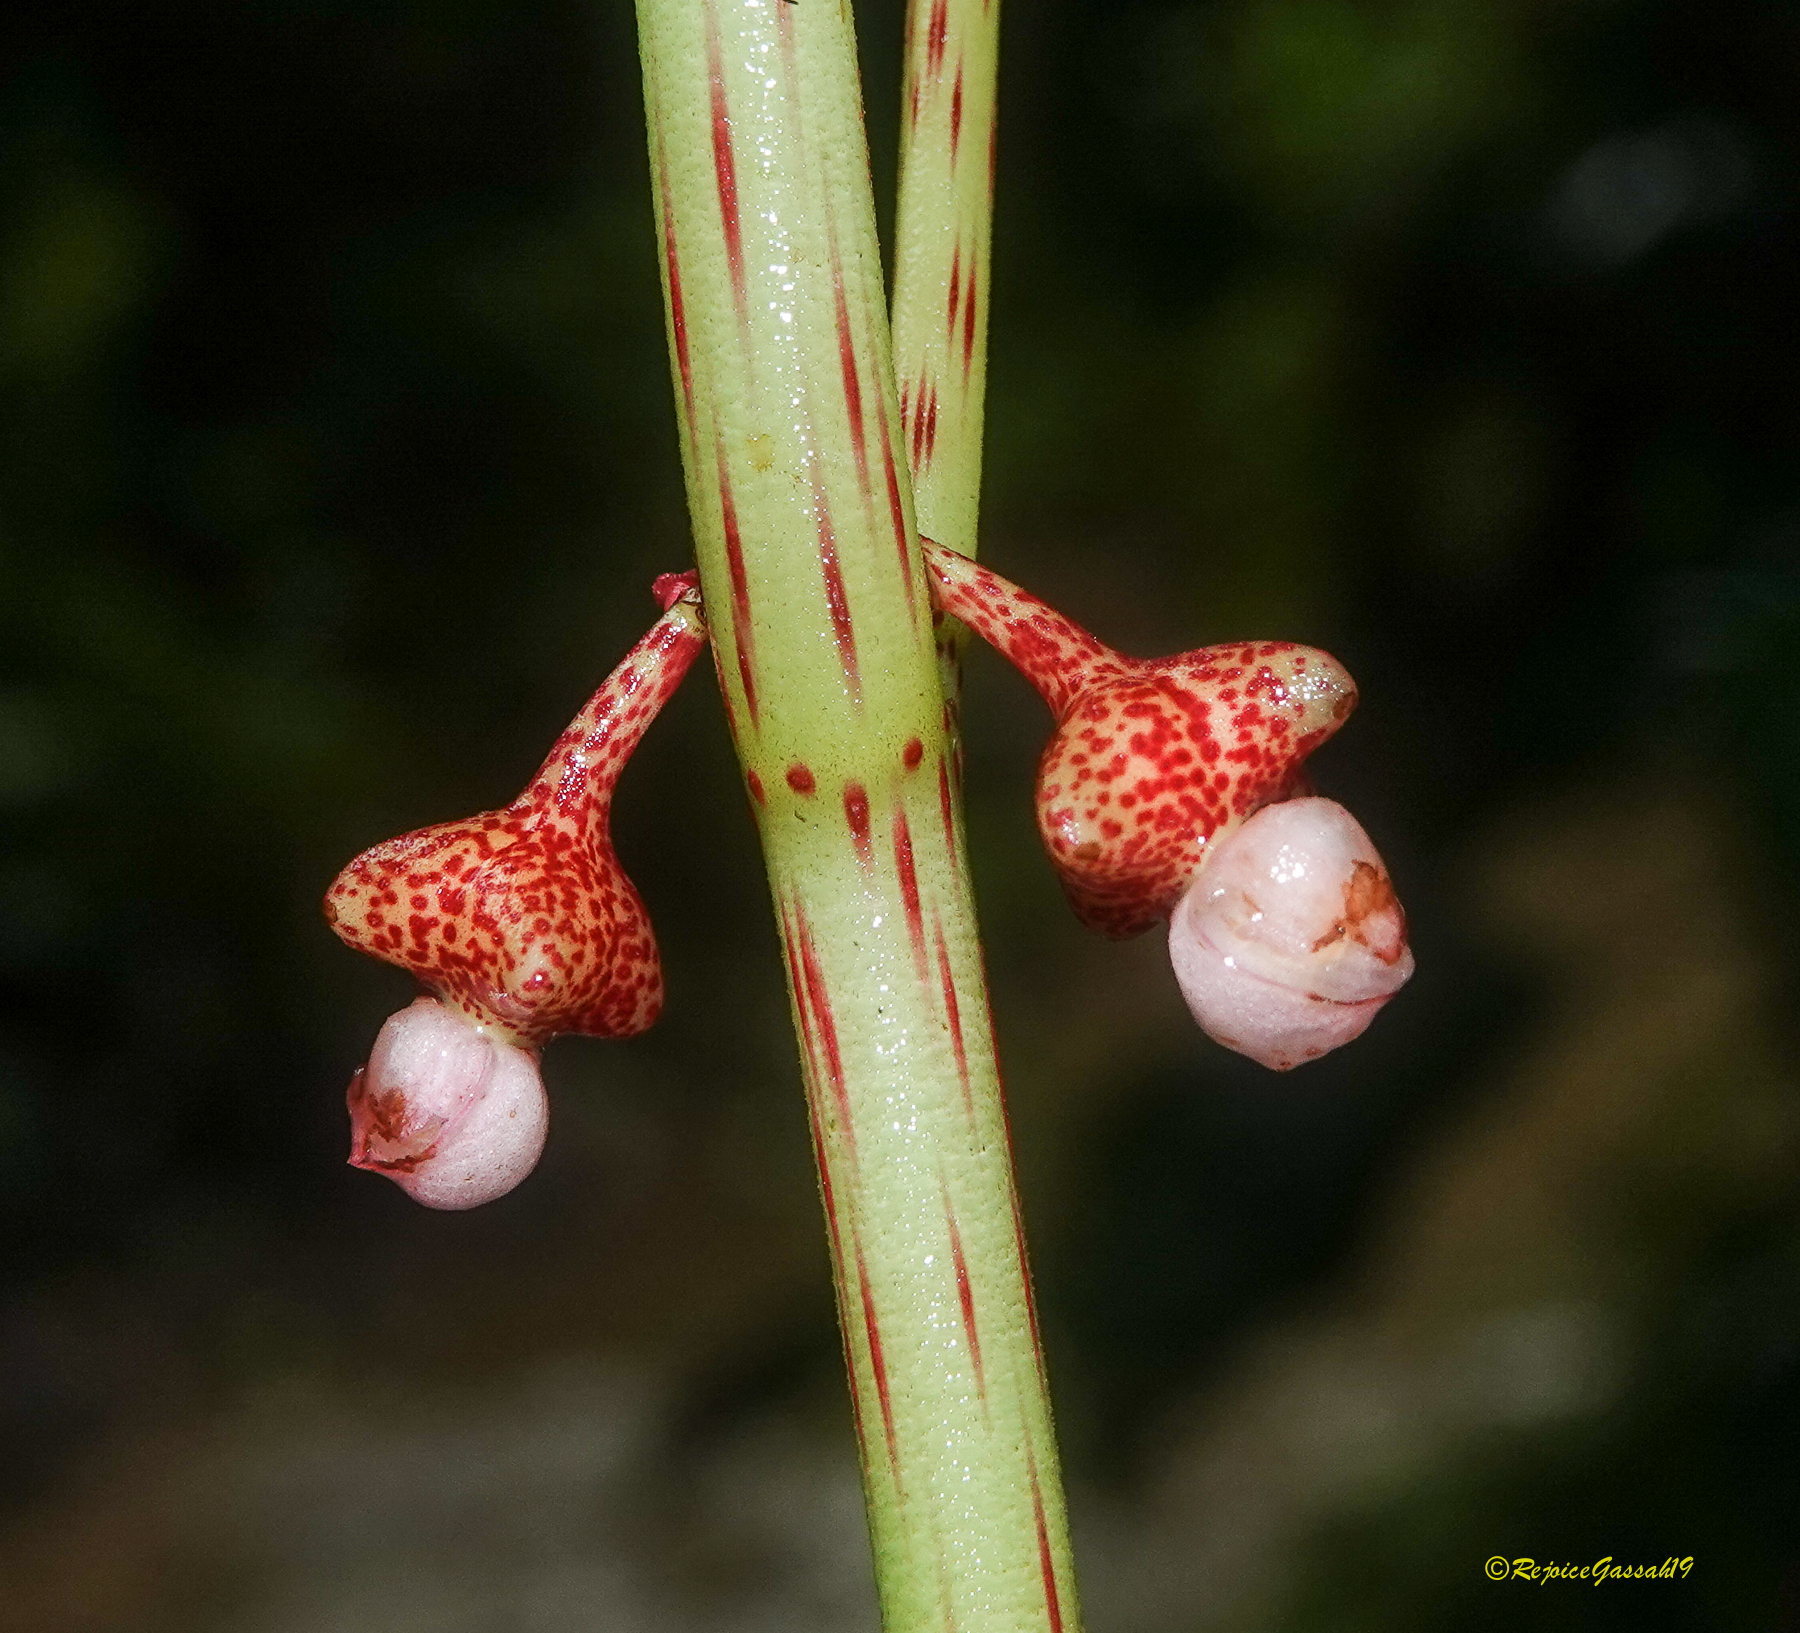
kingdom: Plantae
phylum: Tracheophyta
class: Magnoliopsida
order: Cucurbitales
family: Begoniaceae
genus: Begonia
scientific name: Begonia roxburghii
